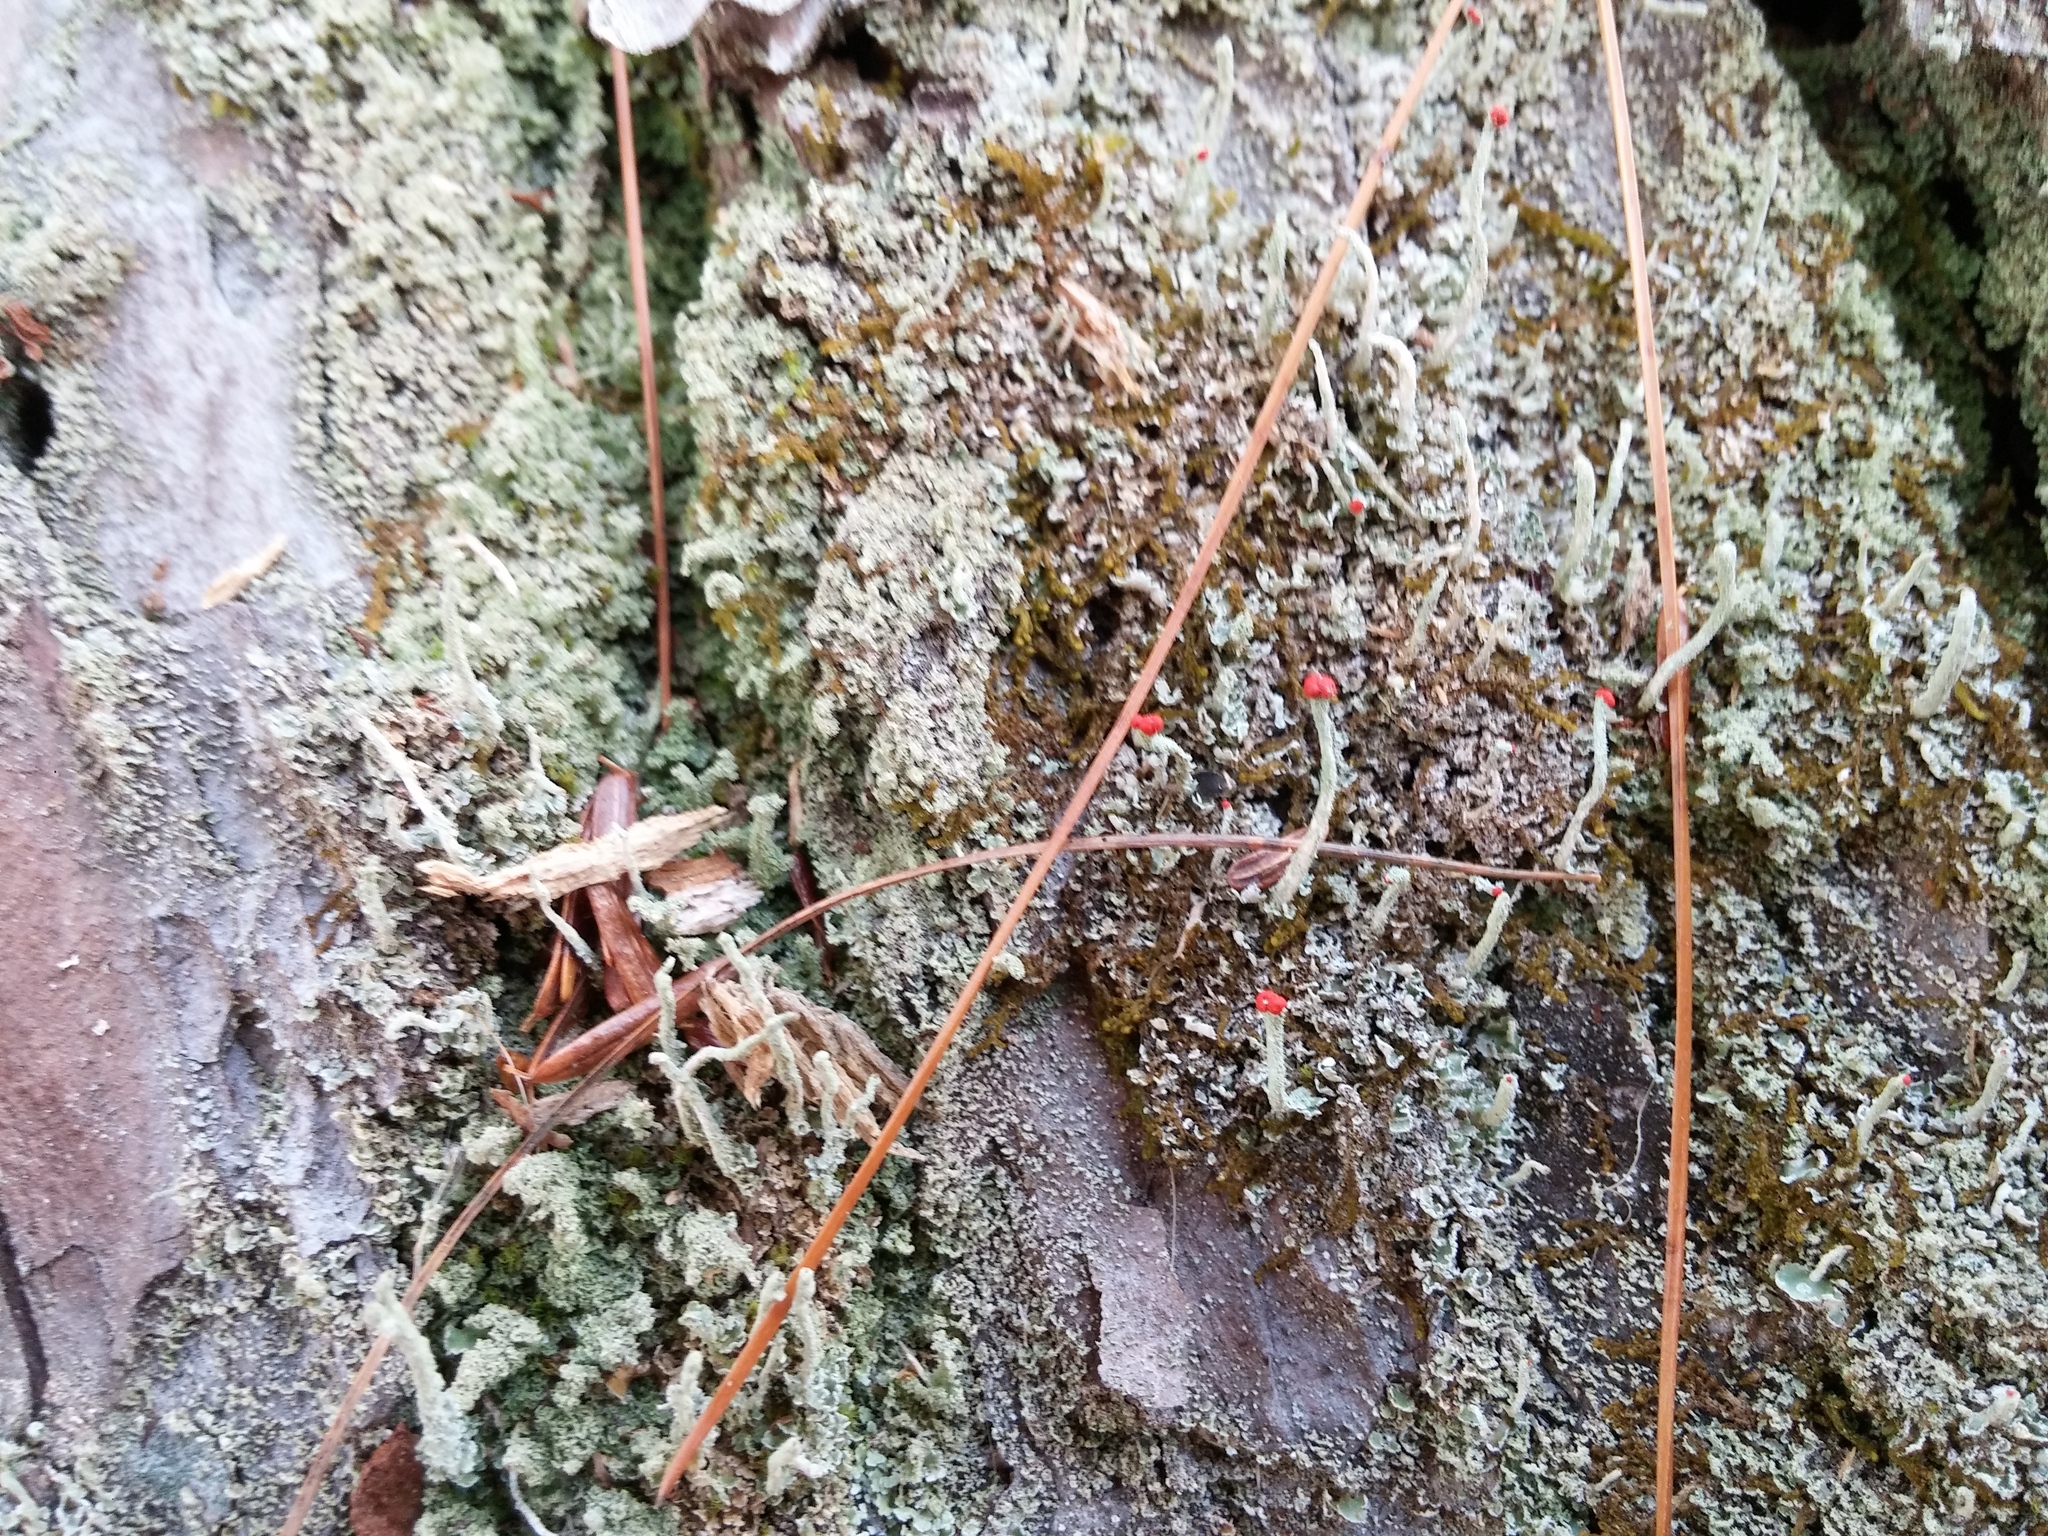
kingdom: Fungi
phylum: Ascomycota
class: Lecanoromycetes
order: Lecanorales
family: Cladoniaceae
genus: Cladonia
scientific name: Cladonia cristatella
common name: British soldier lichen
